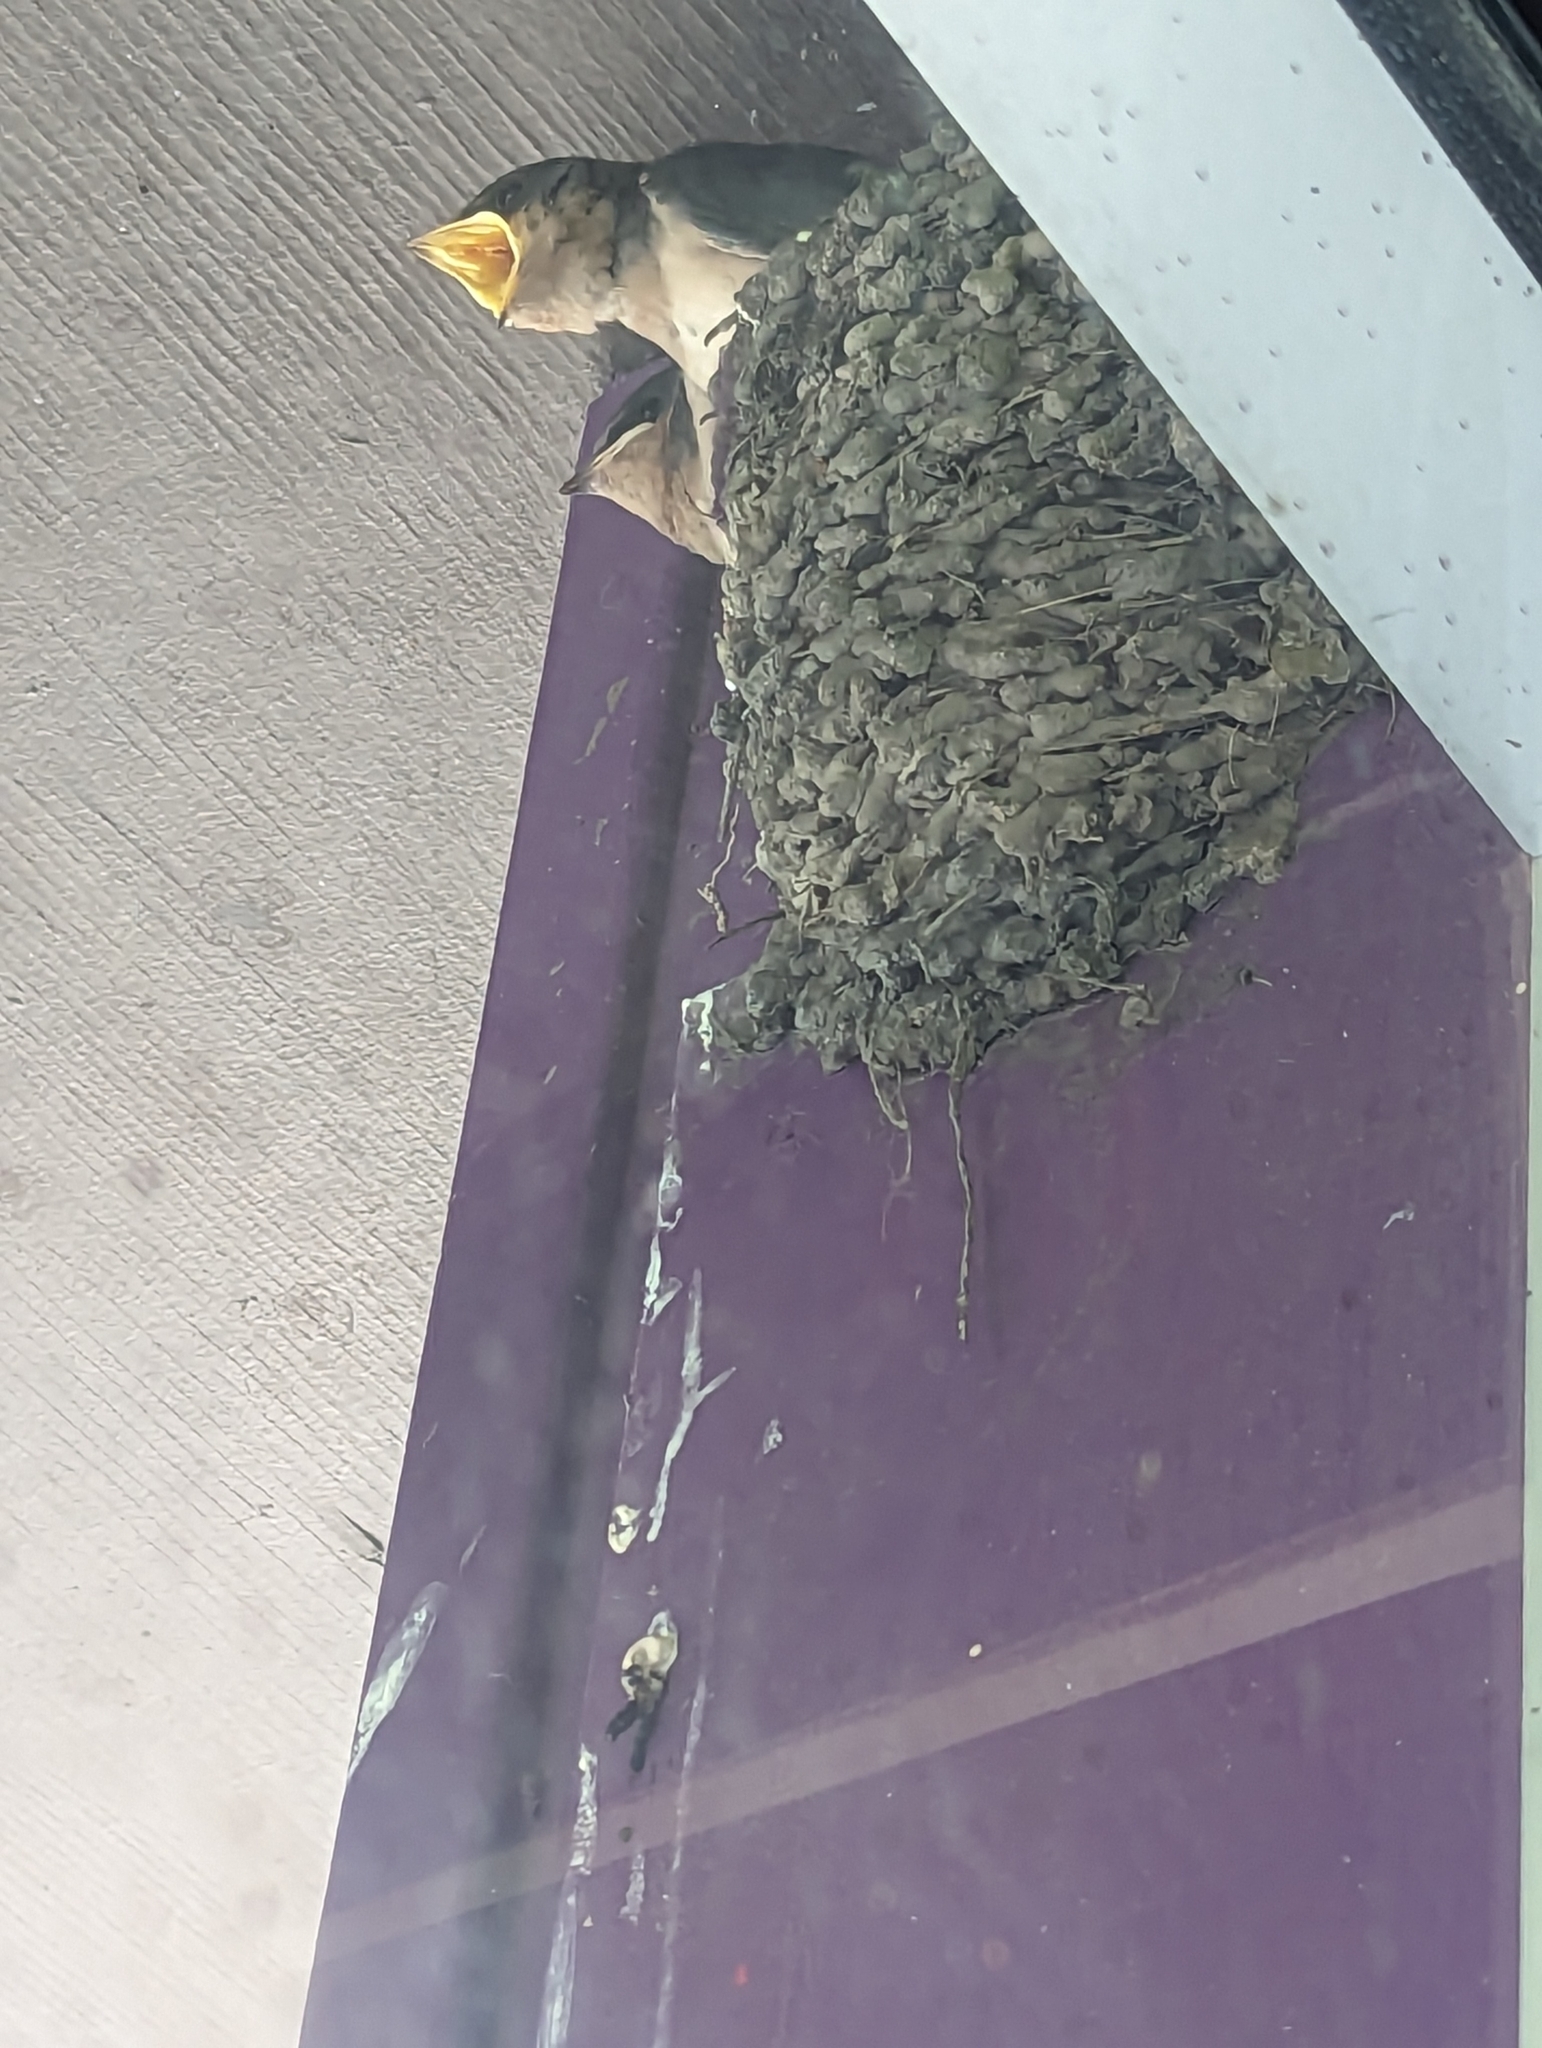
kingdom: Animalia
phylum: Chordata
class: Aves
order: Passeriformes
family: Hirundinidae
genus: Hirundo
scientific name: Hirundo rustica
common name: Barn swallow
